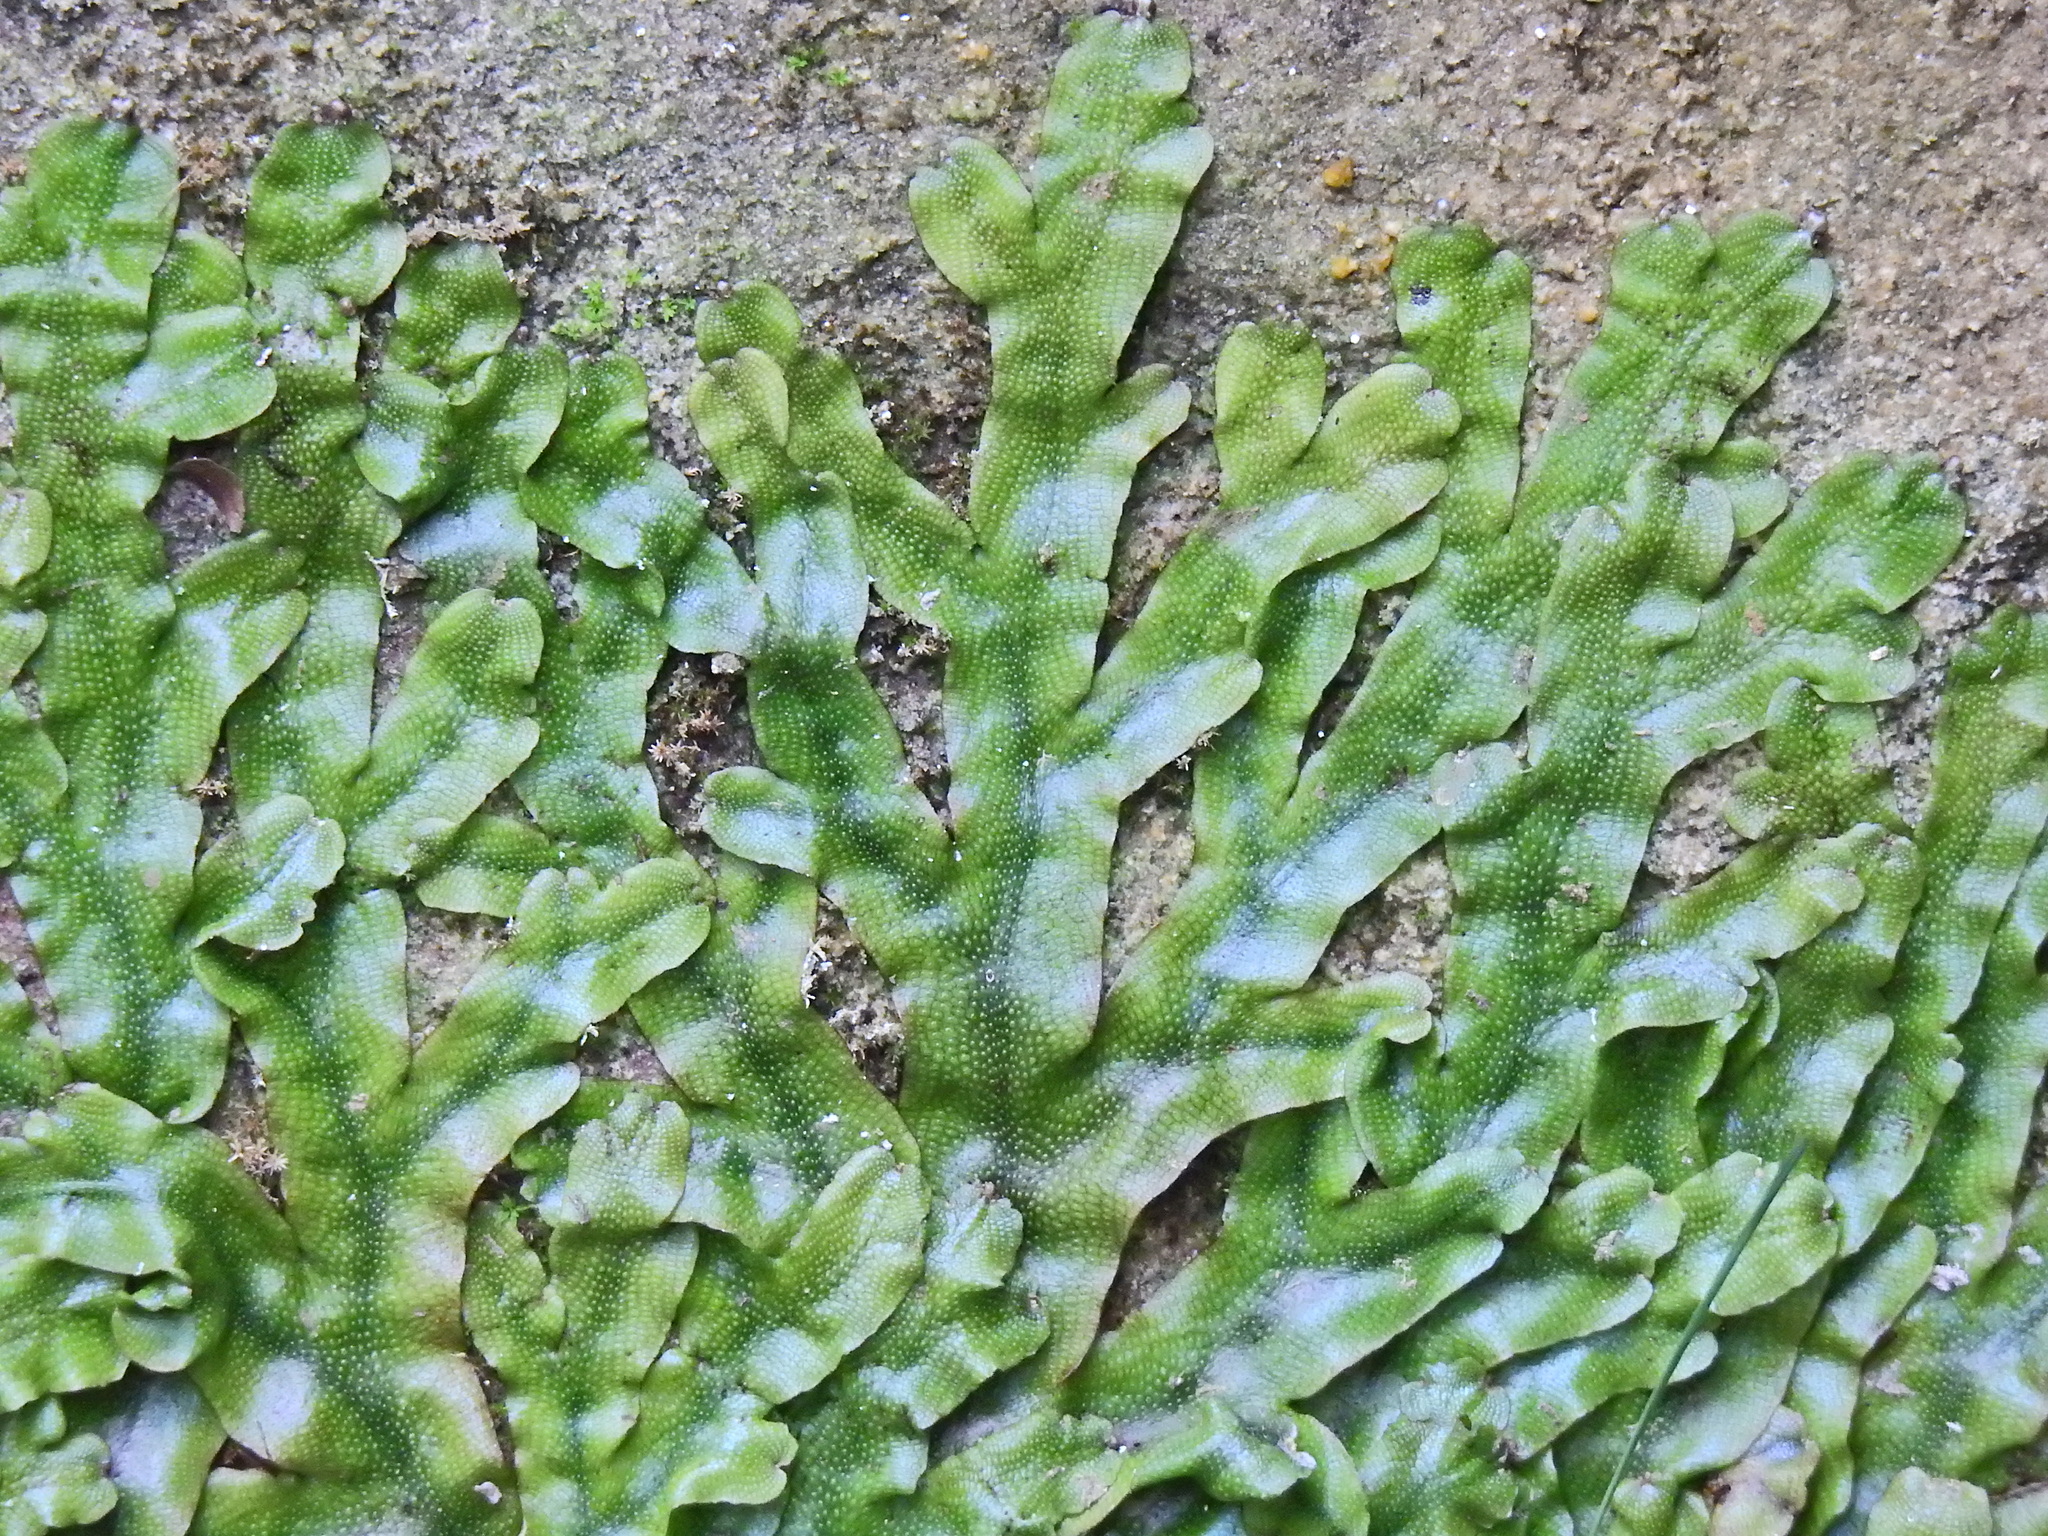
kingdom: Plantae
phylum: Marchantiophyta
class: Marchantiopsida
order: Marchantiales
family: Conocephalaceae
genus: Conocephalum
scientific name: Conocephalum conicum
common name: Great scented liverwort
